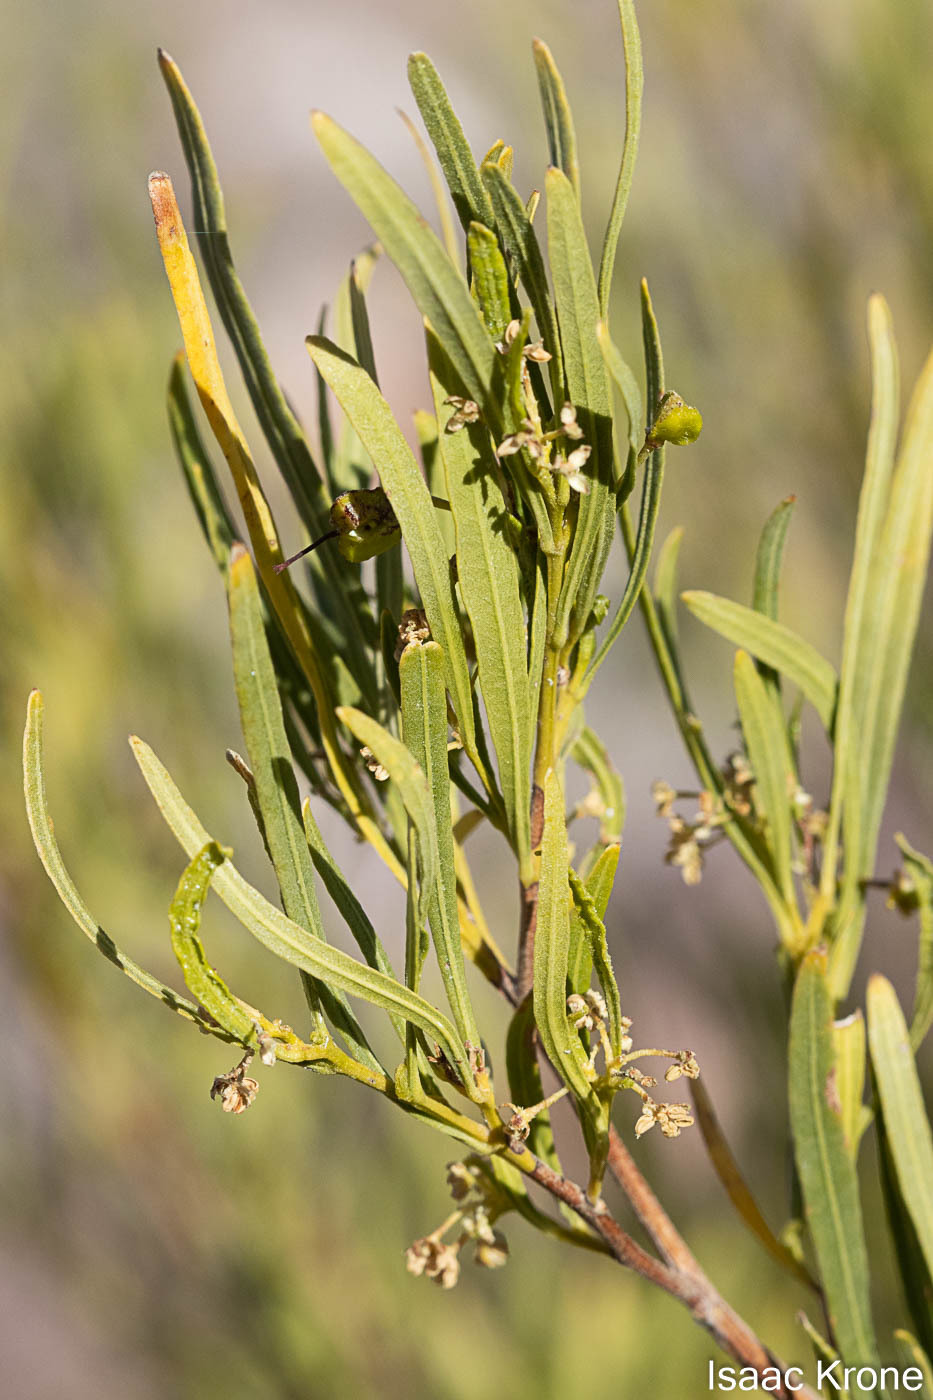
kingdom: Plantae
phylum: Tracheophyta
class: Magnoliopsida
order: Sapindales
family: Sapindaceae
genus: Dodonaea
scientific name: Dodonaea viscosa
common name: Hopbush
